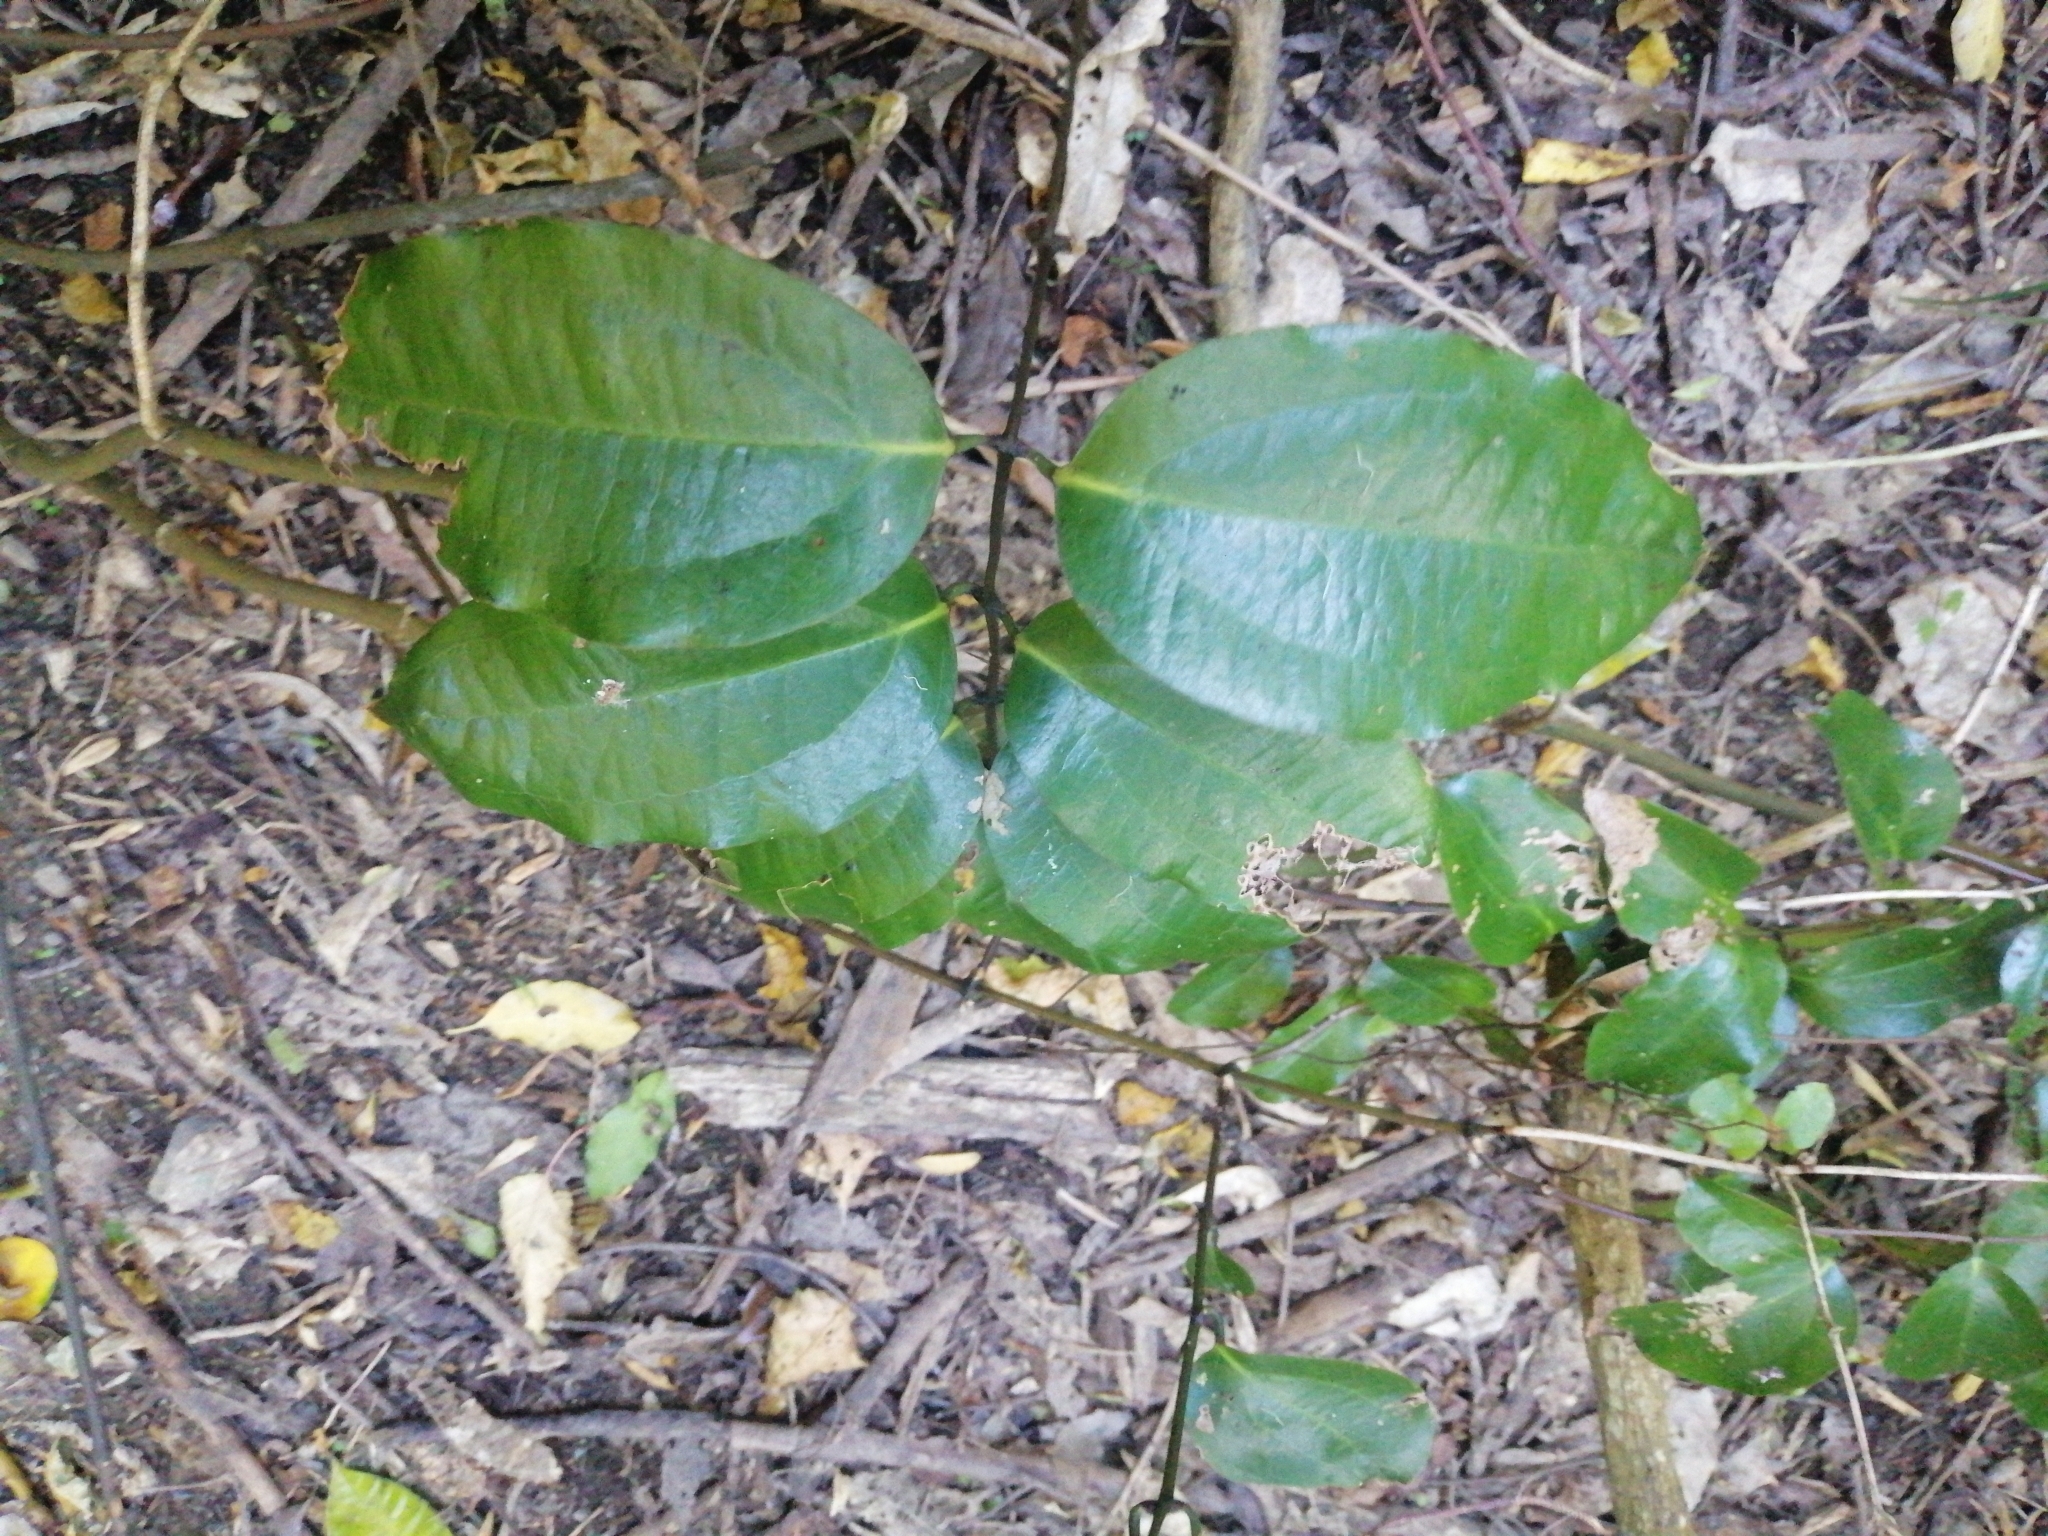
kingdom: Plantae
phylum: Tracheophyta
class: Liliopsida
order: Liliales
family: Ripogonaceae
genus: Ripogonum
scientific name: Ripogonum scandens
